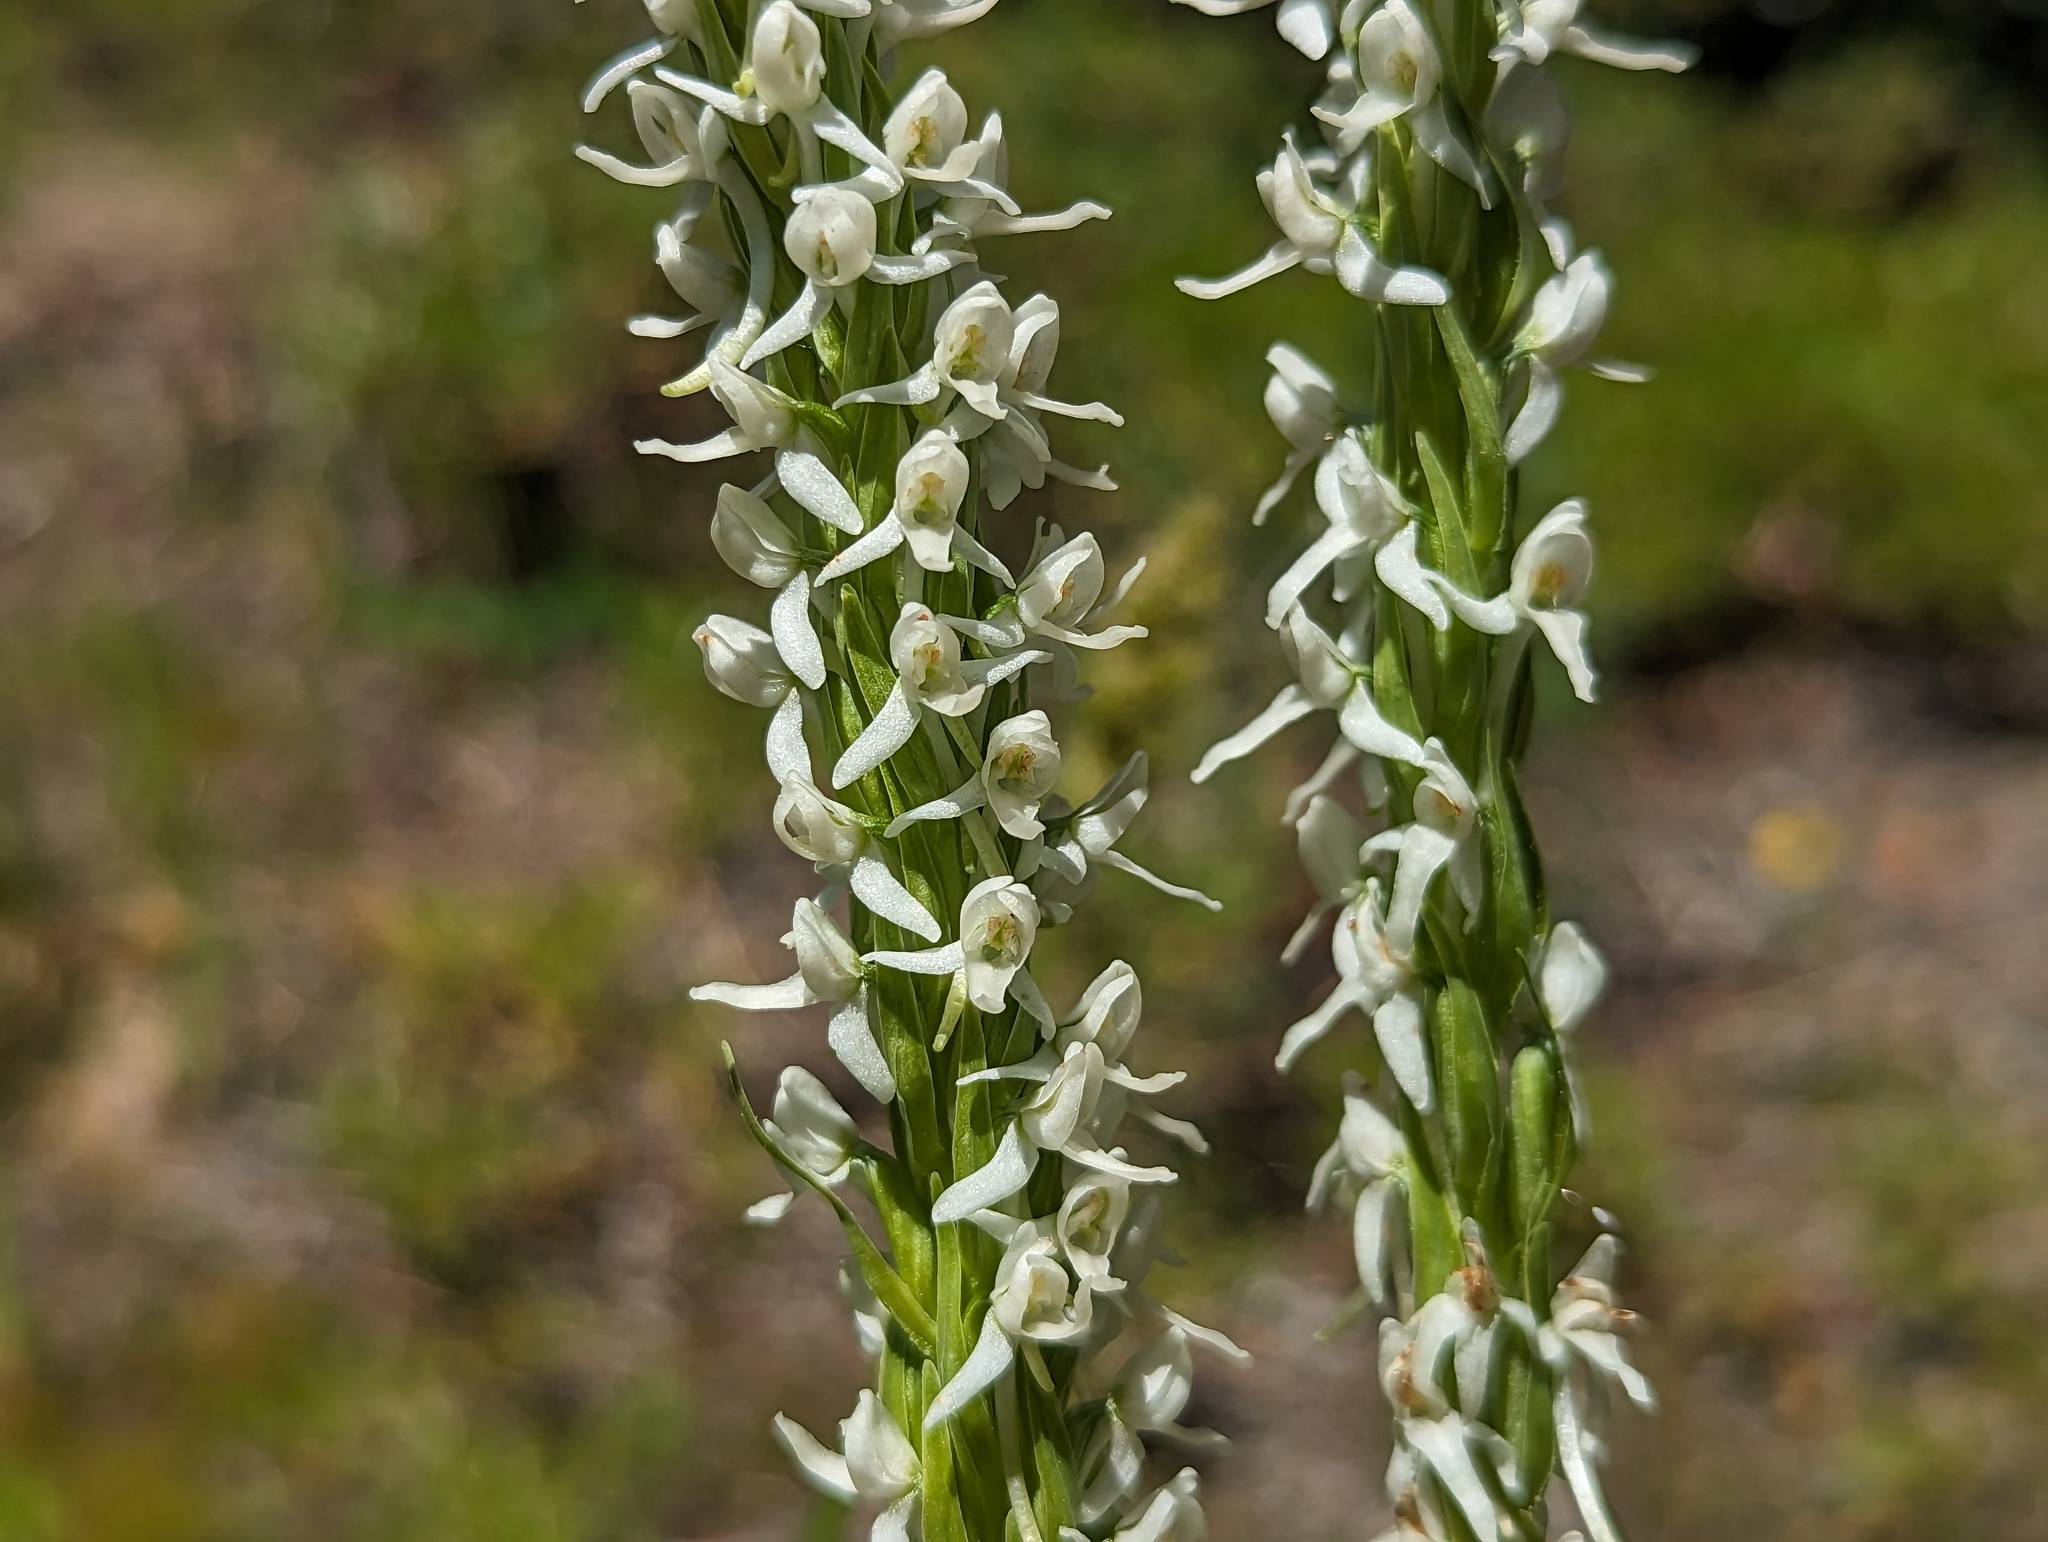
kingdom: Plantae
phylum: Tracheophyta
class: Liliopsida
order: Asparagales
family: Orchidaceae
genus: Platanthera
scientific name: Platanthera dilatata
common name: Bog candles
